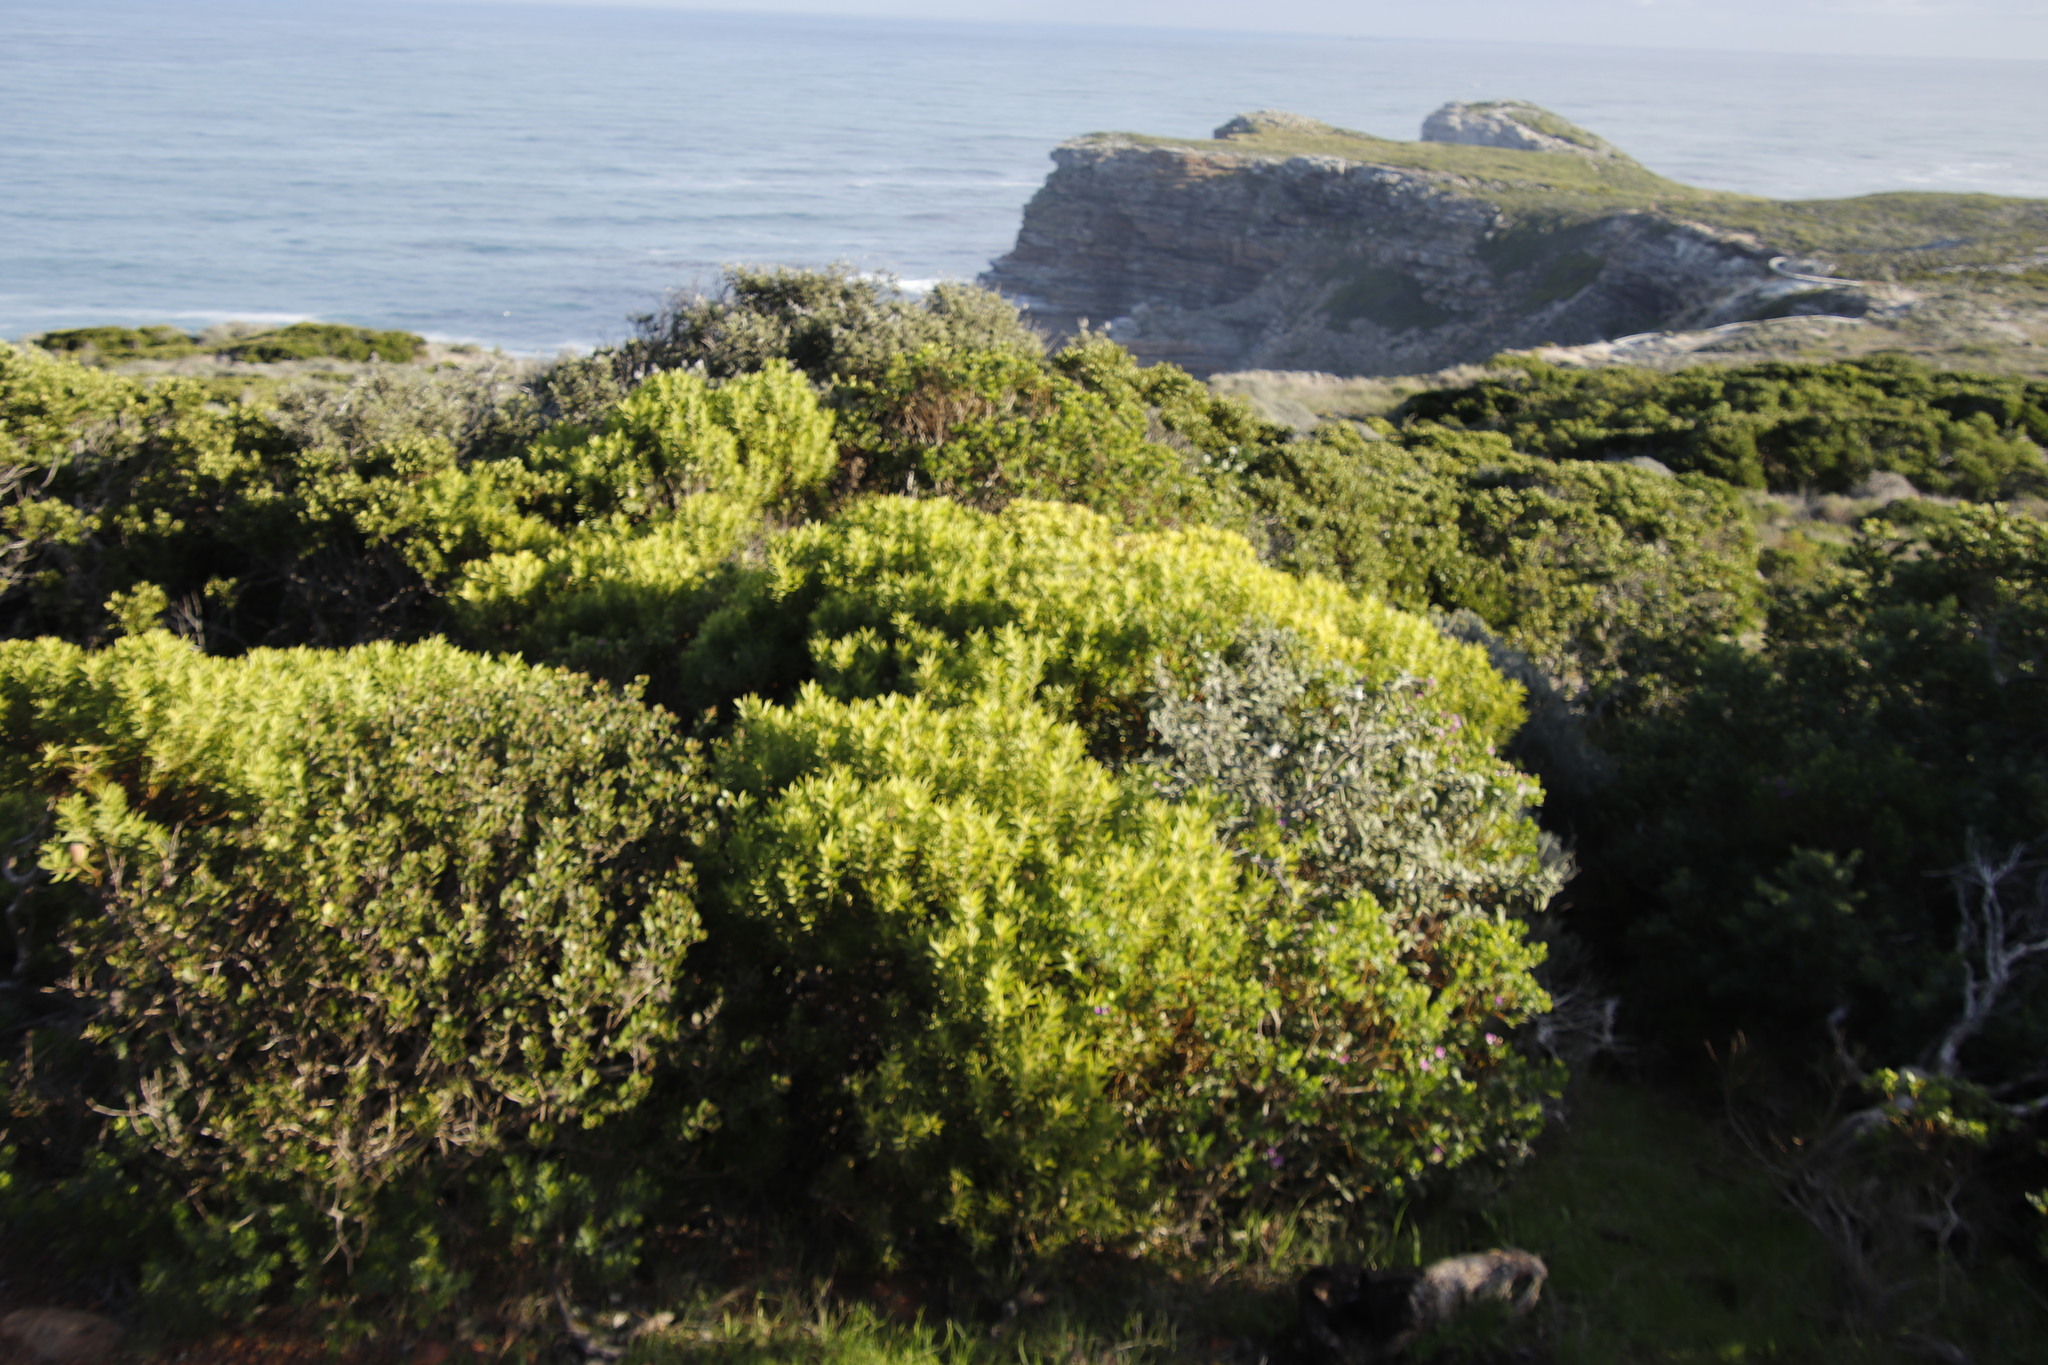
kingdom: Plantae
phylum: Tracheophyta
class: Magnoliopsida
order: Proteales
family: Proteaceae
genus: Leucadendron
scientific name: Leucadendron coniferum
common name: Dune conebush
